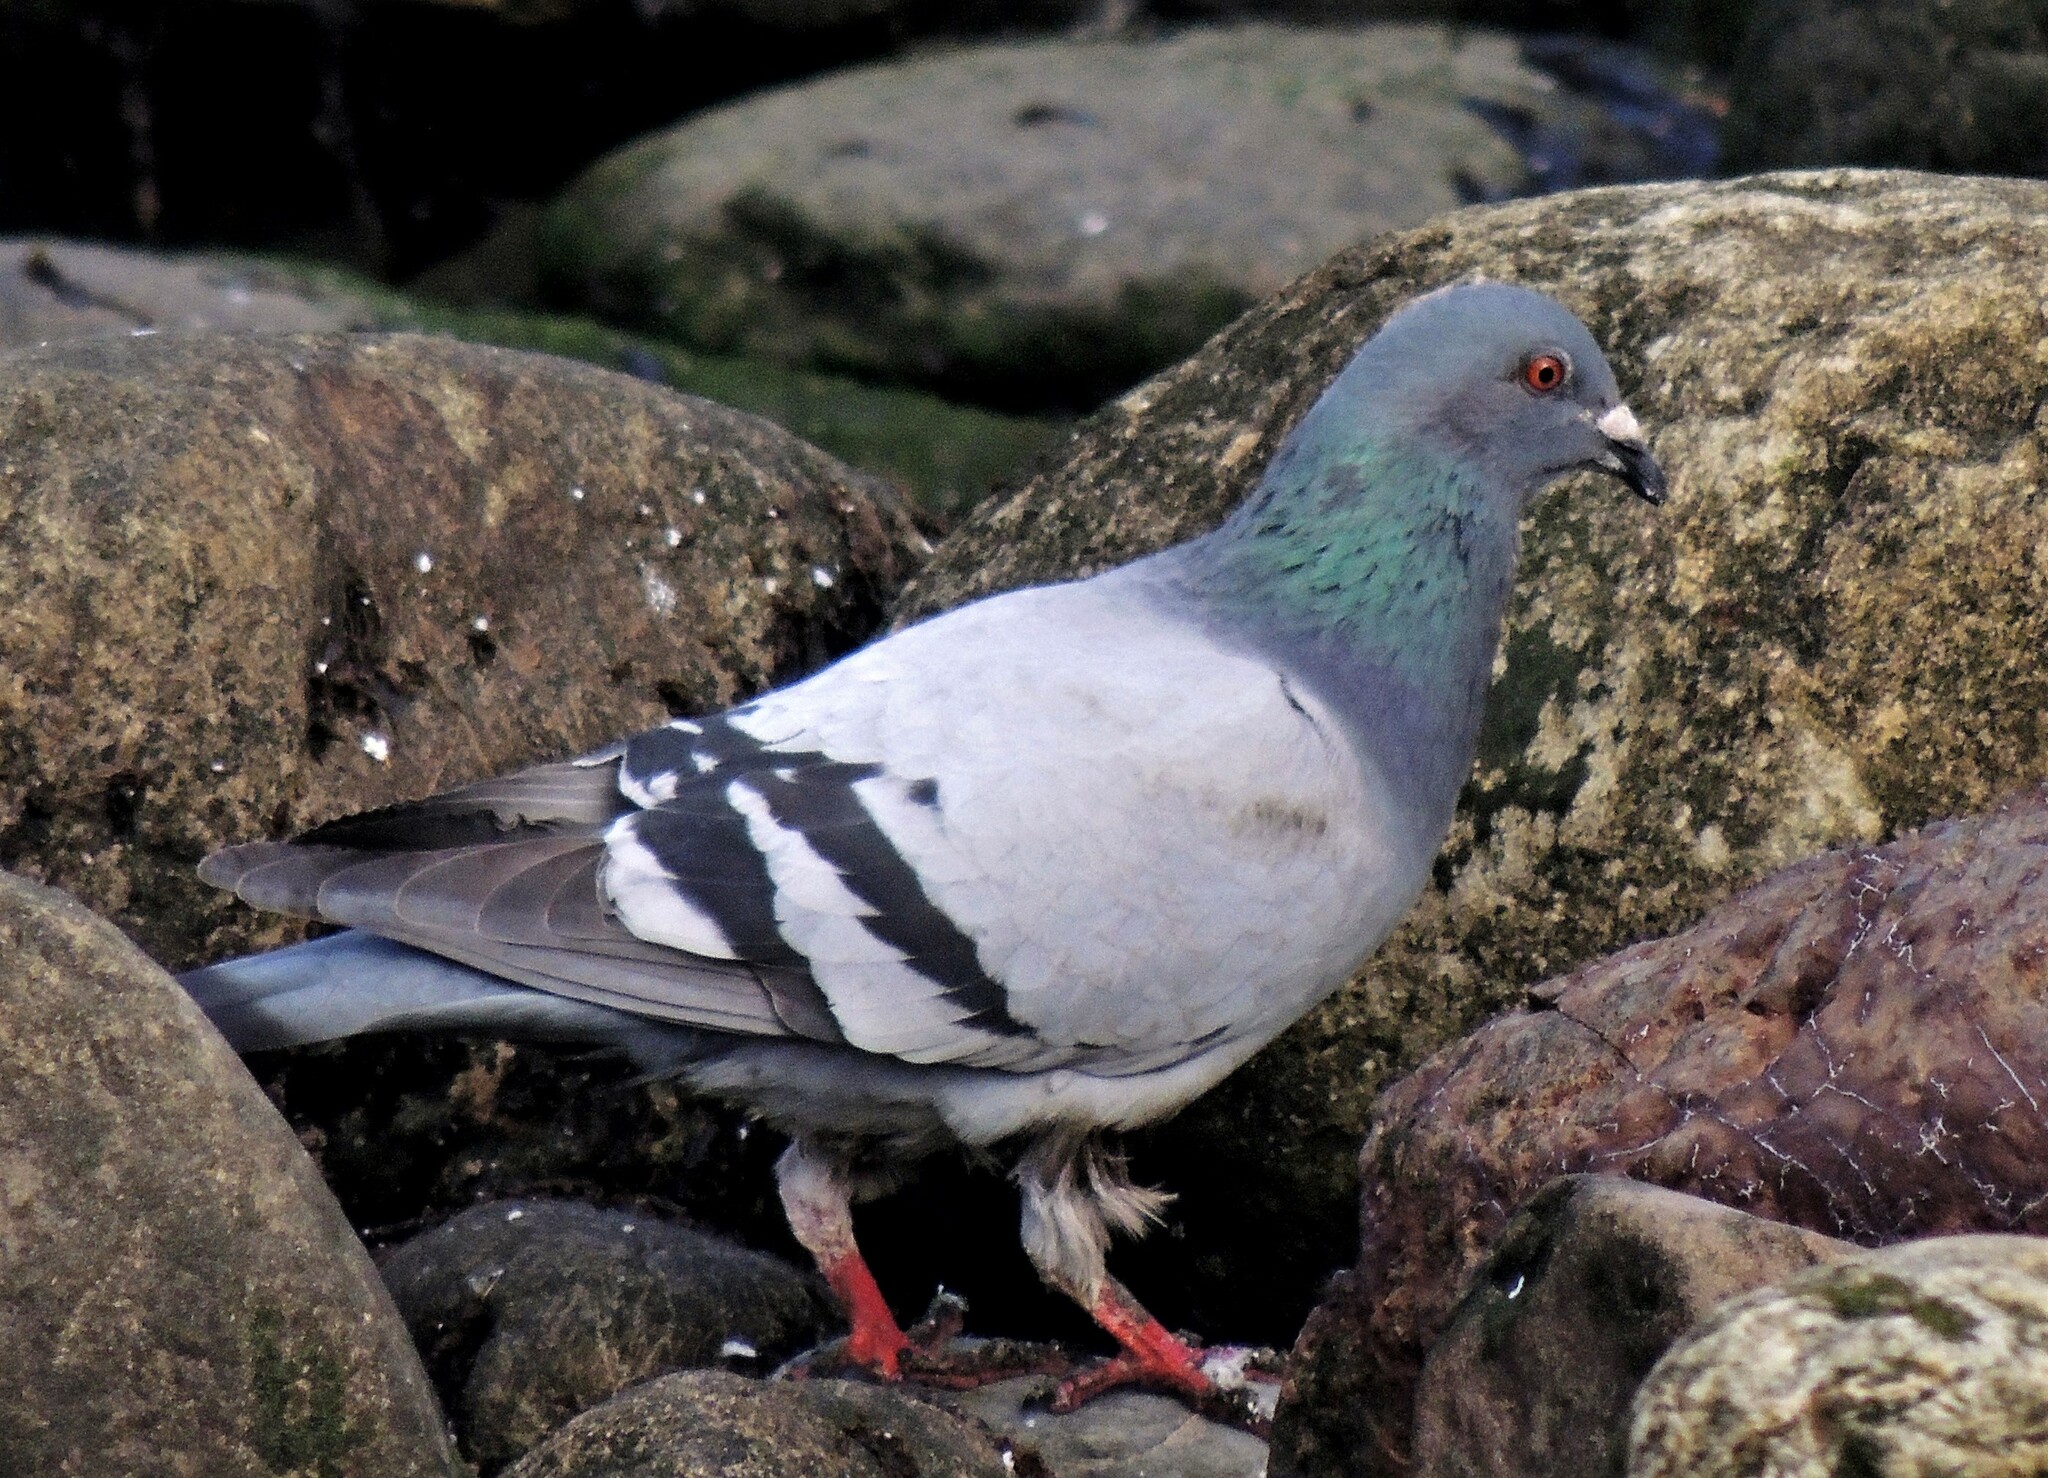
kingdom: Animalia
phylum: Chordata
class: Aves
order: Columbiformes
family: Columbidae
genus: Columba
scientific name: Columba livia
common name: Rock pigeon
